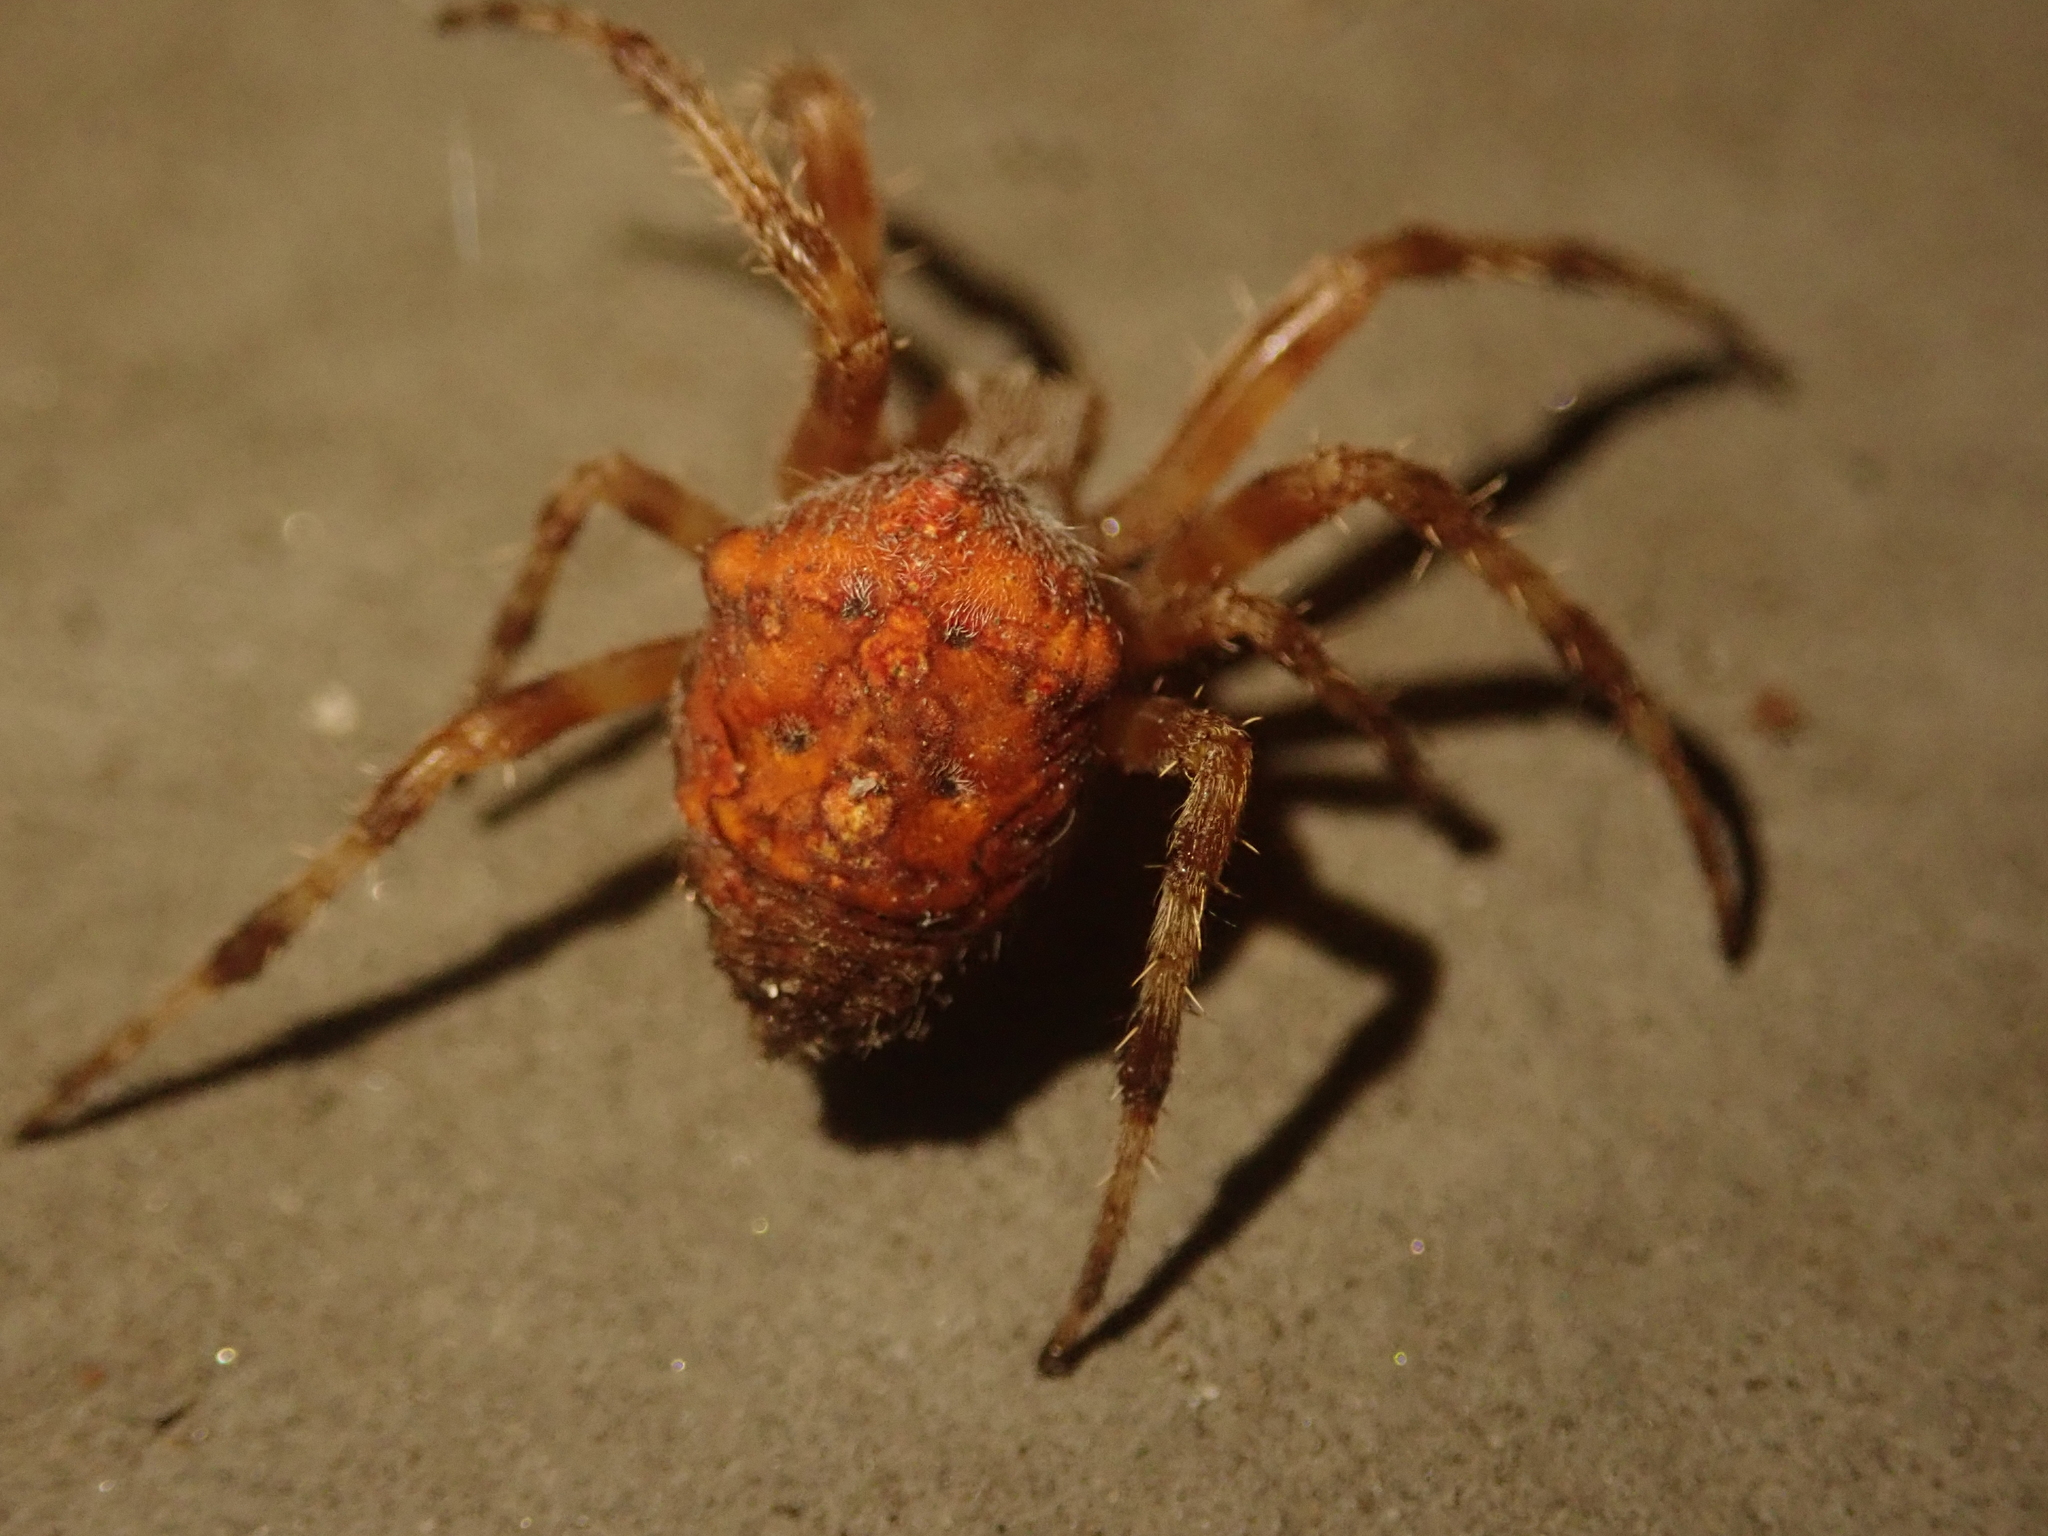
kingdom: Animalia
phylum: Arthropoda
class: Arachnida
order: Araneae
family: Araneidae
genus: Araneus
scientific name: Araneus diadematus
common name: Cross orbweaver
